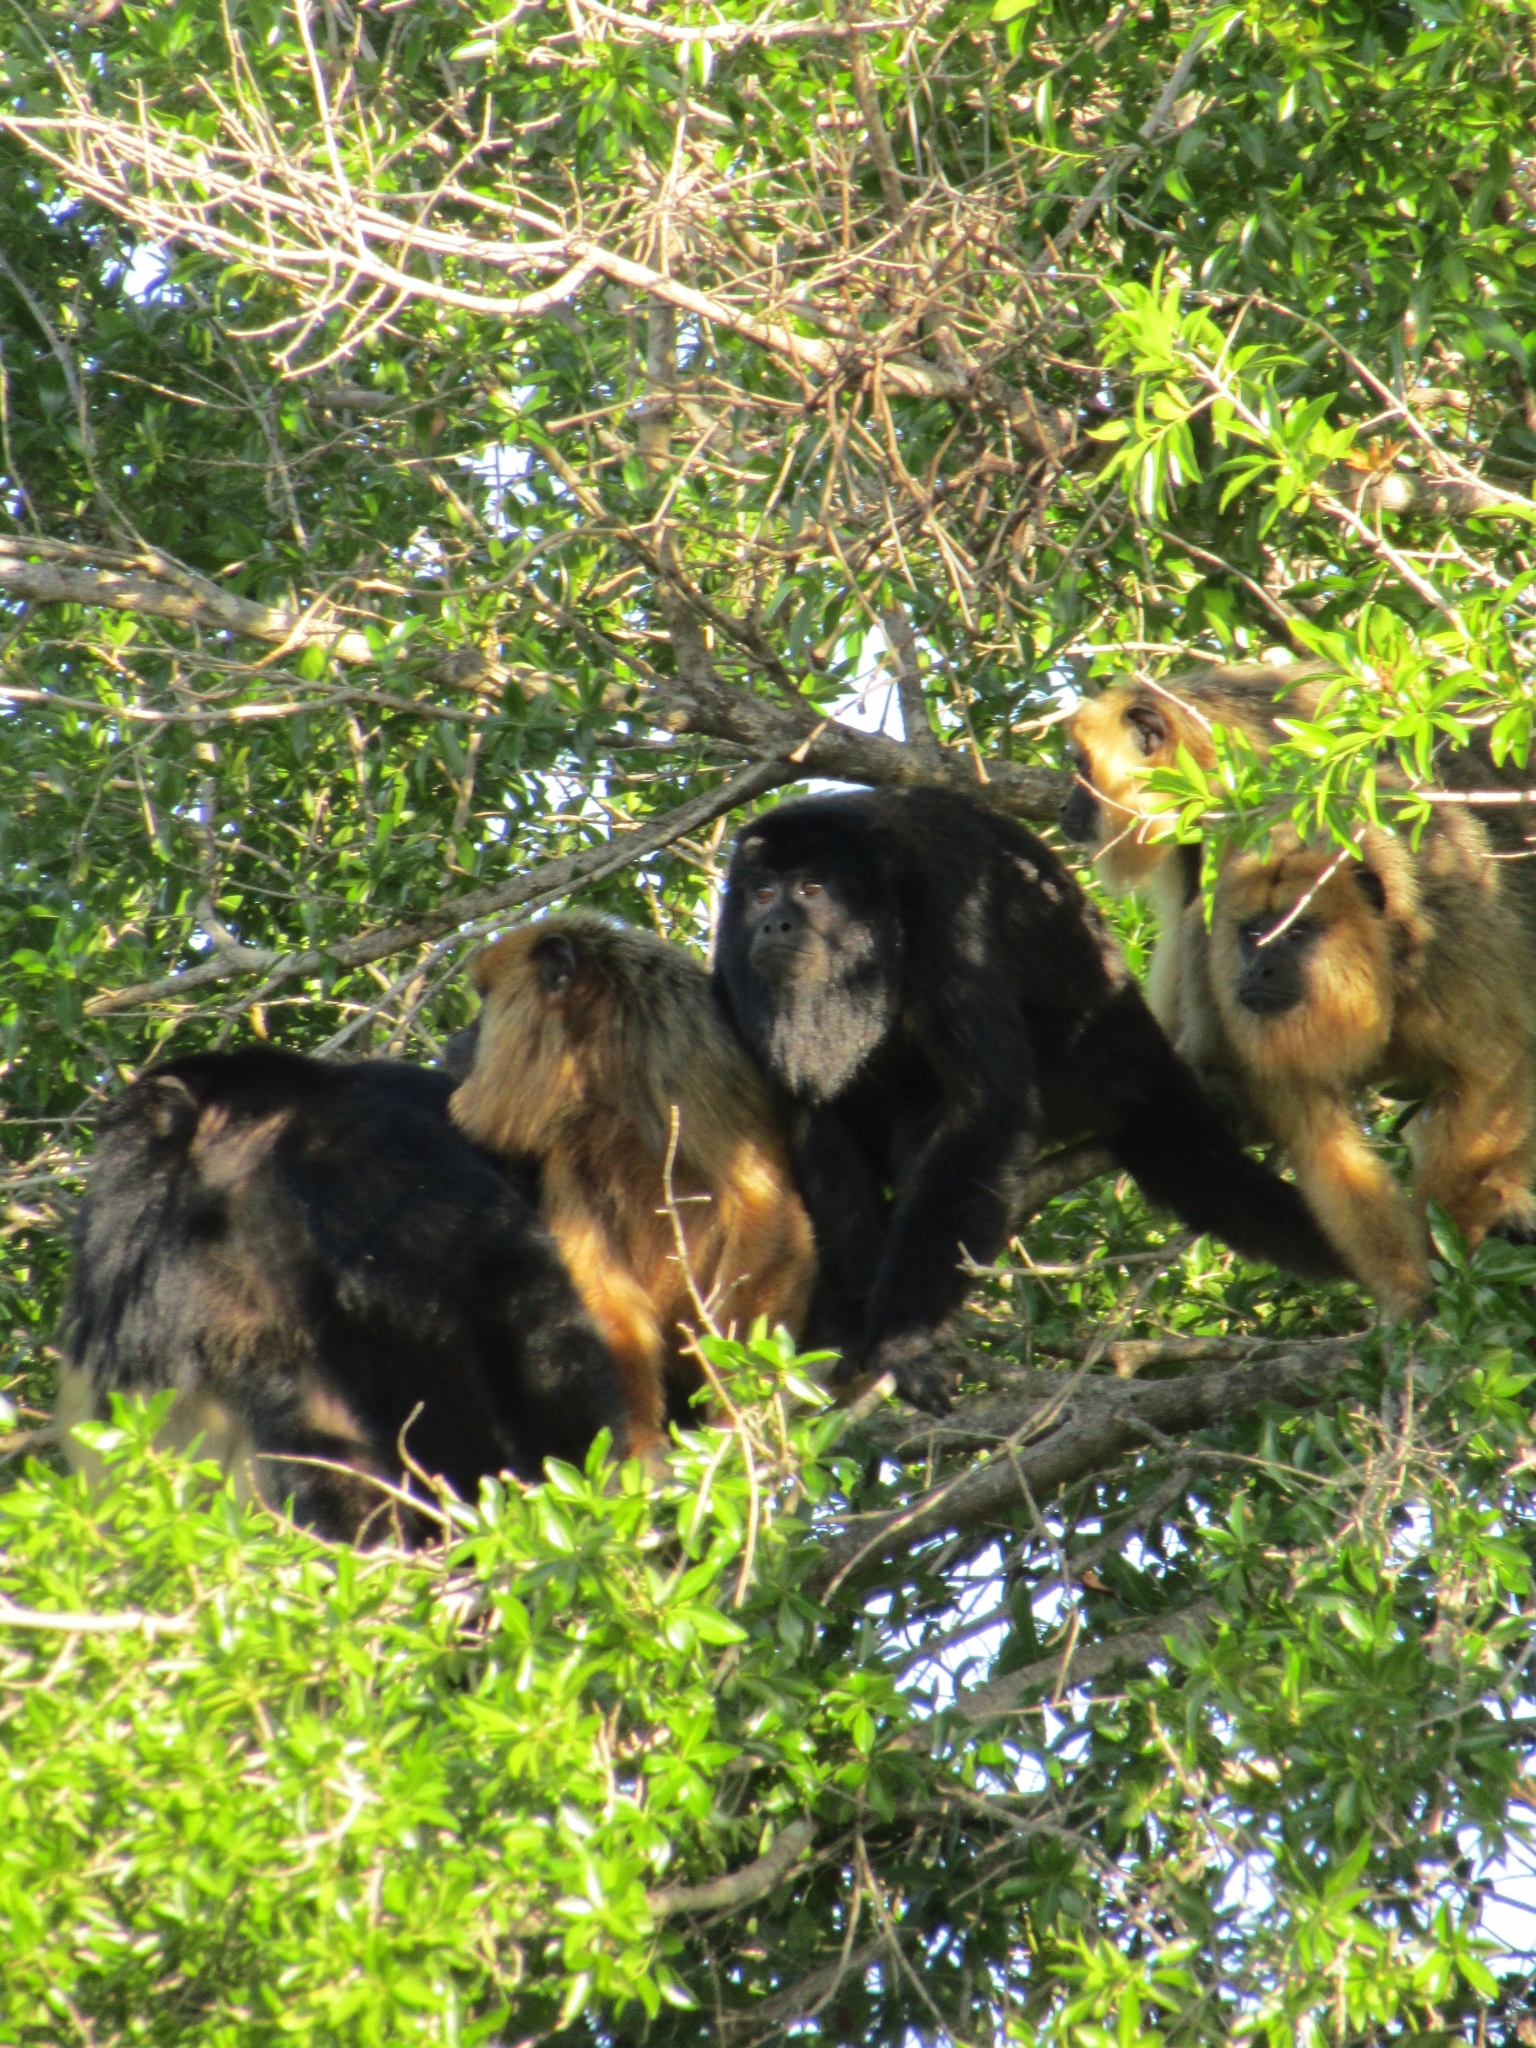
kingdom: Animalia
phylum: Chordata
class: Mammalia
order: Primates
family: Atelidae
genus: Alouatta
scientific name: Alouatta caraya
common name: Black howler
